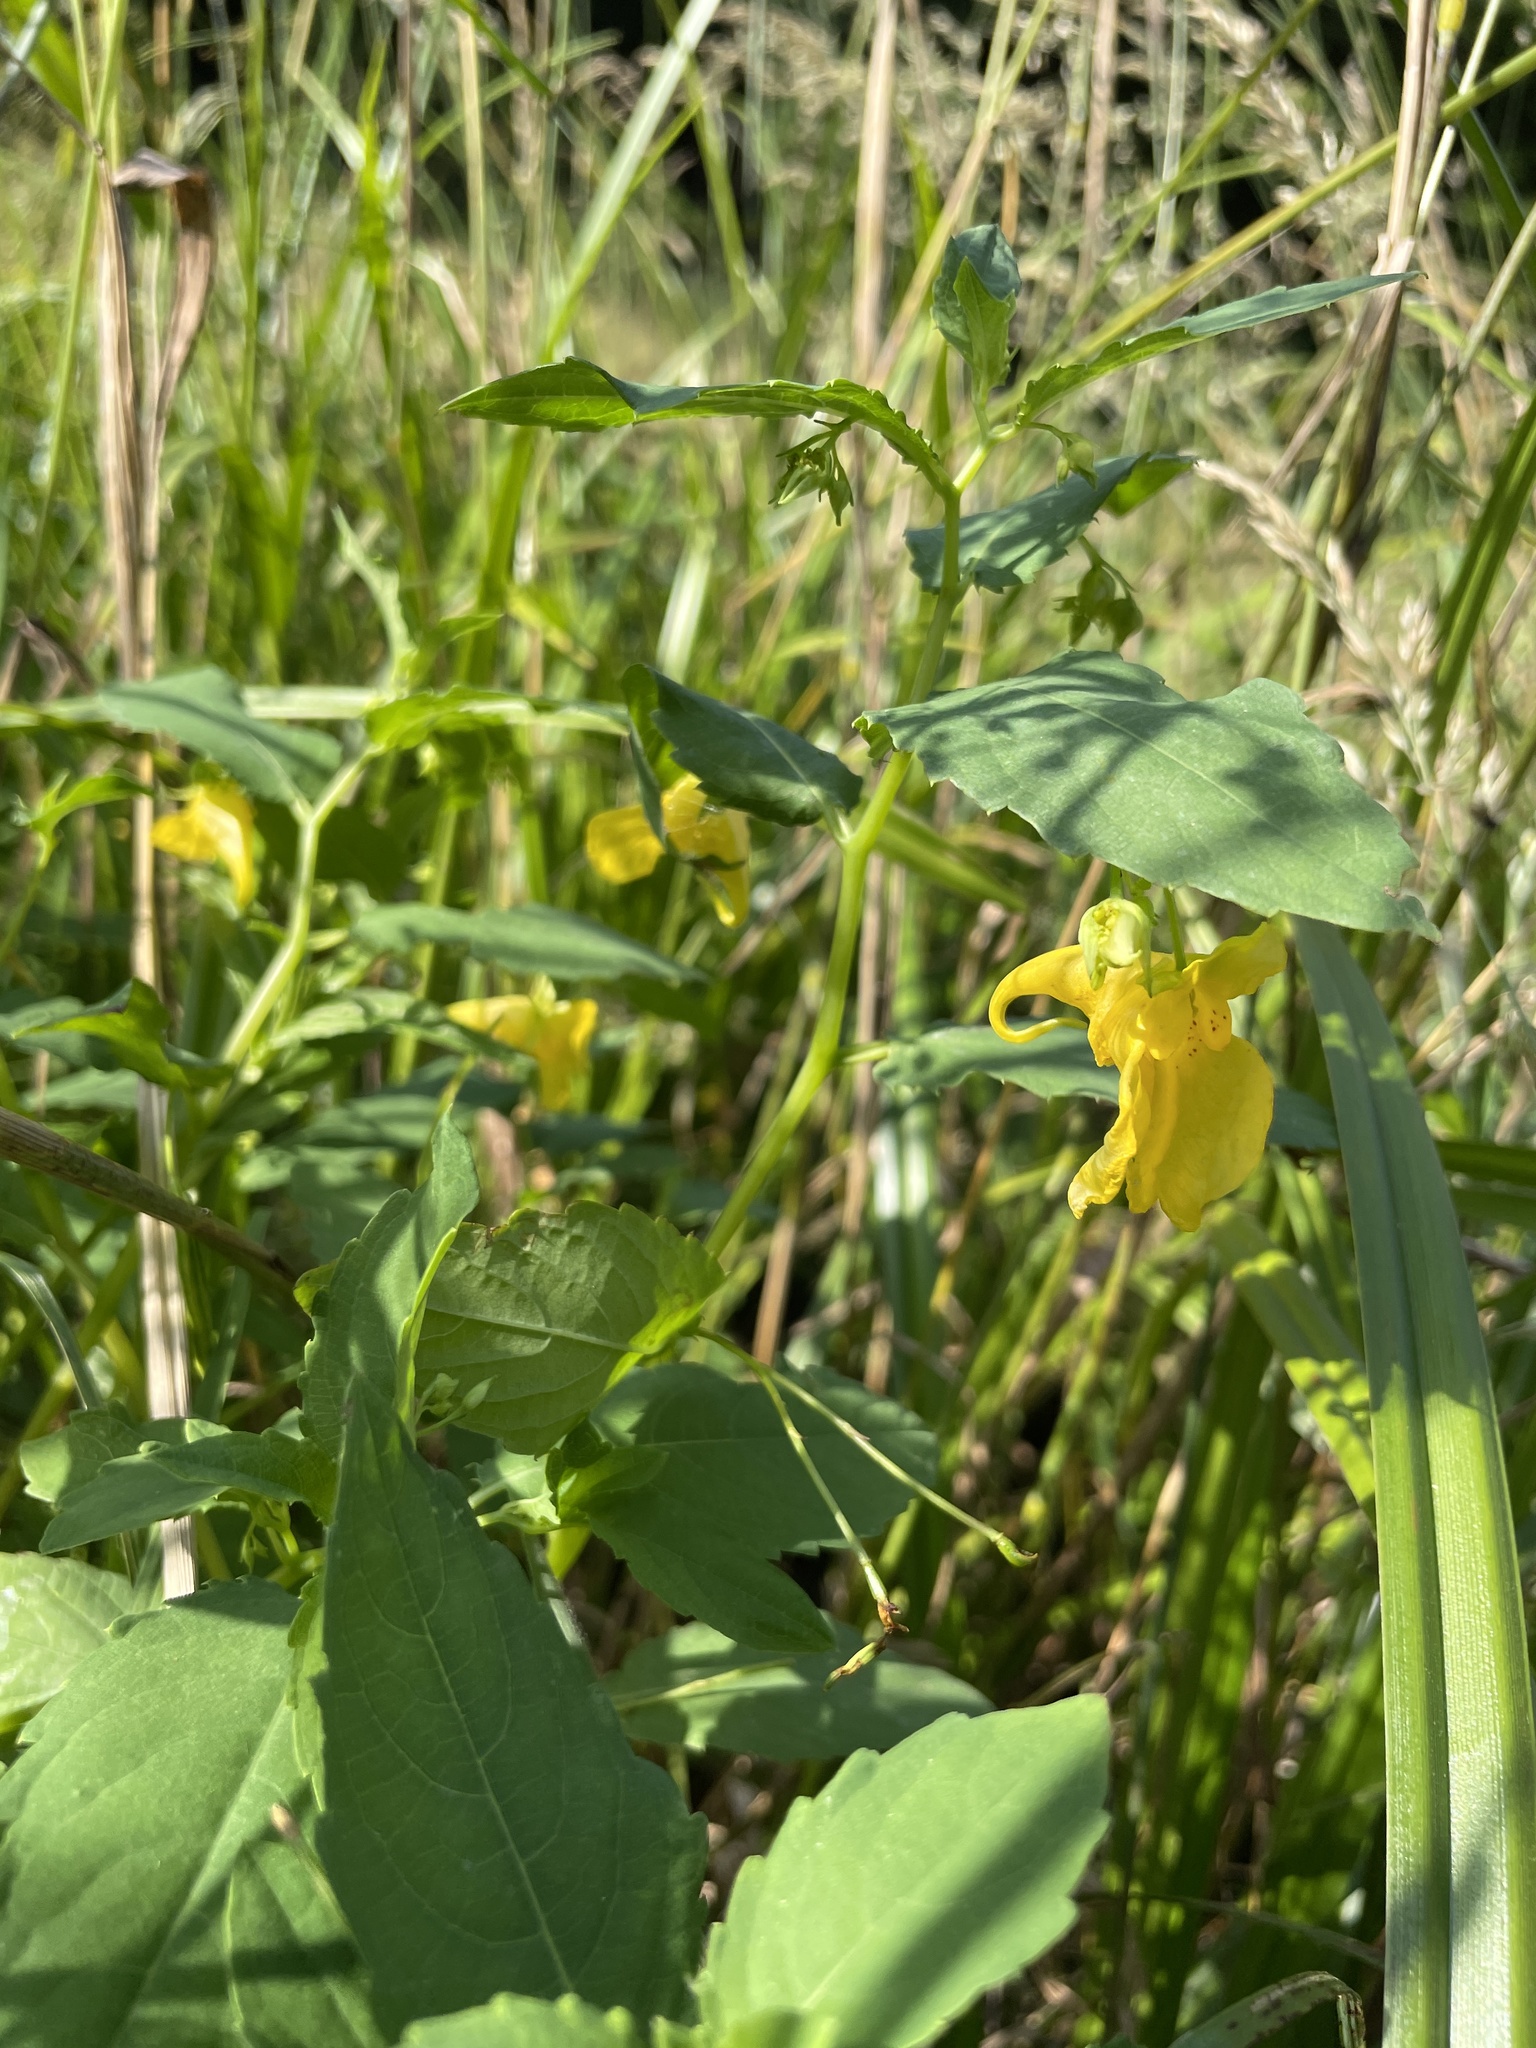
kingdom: Plantae
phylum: Tracheophyta
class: Magnoliopsida
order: Ericales
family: Balsaminaceae
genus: Impatiens
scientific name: Impatiens noli-tangere
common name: Touch-me-not balsam
